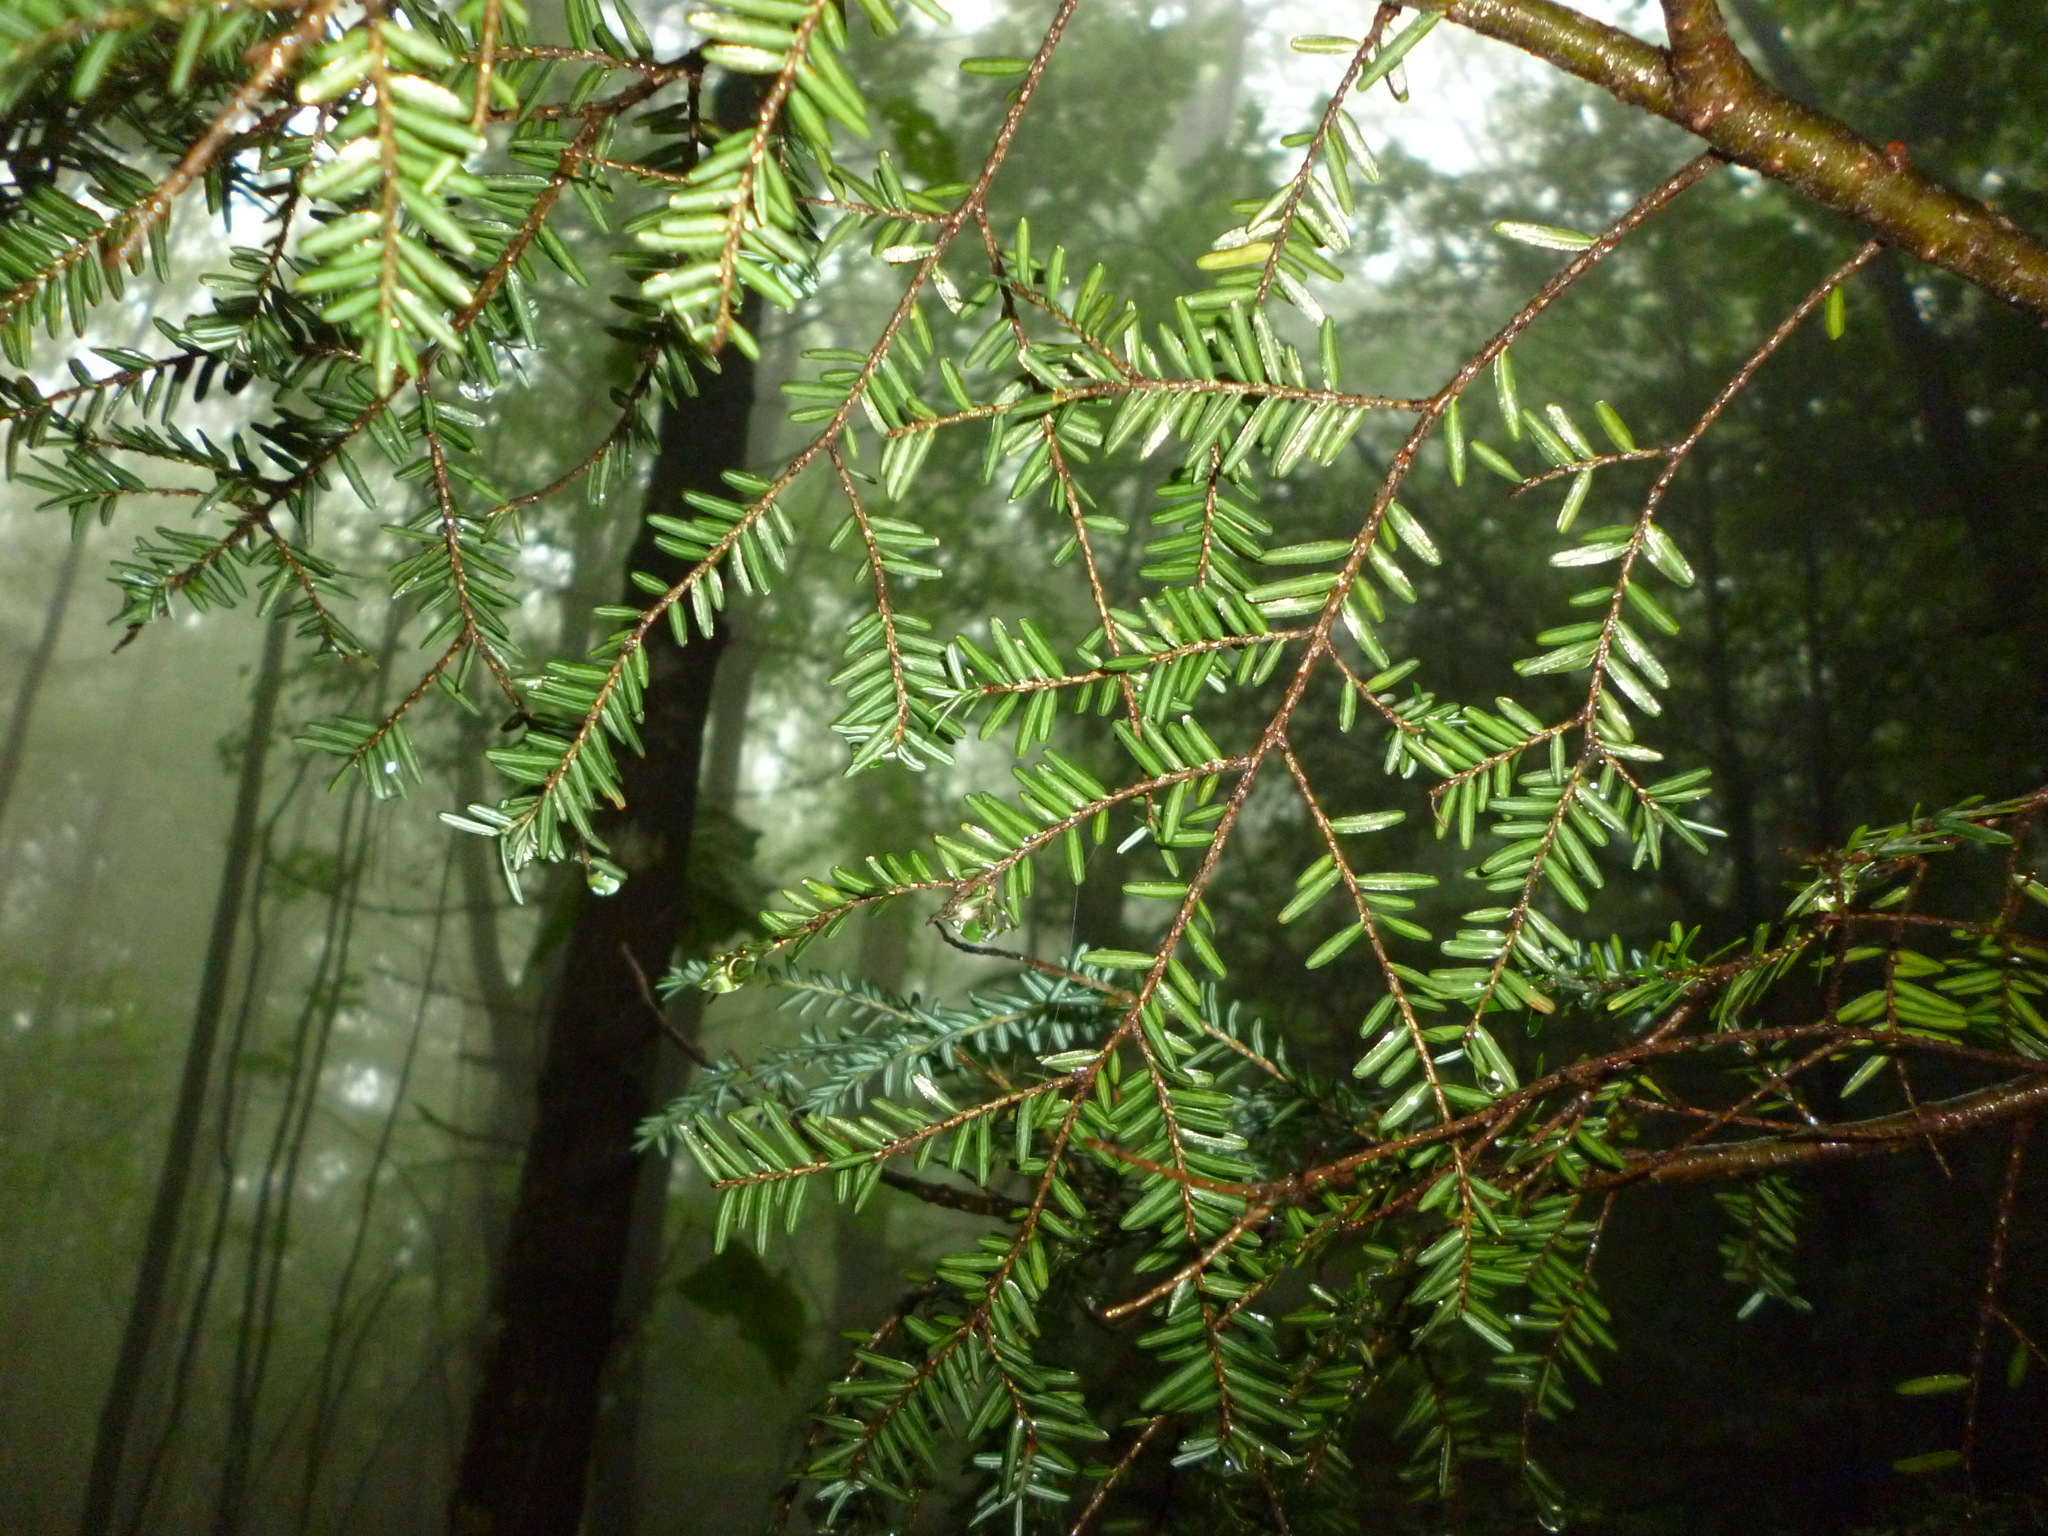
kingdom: Plantae
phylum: Tracheophyta
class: Pinopsida
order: Pinales
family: Pinaceae
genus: Tsuga
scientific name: Tsuga canadensis
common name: Eastern hemlock
